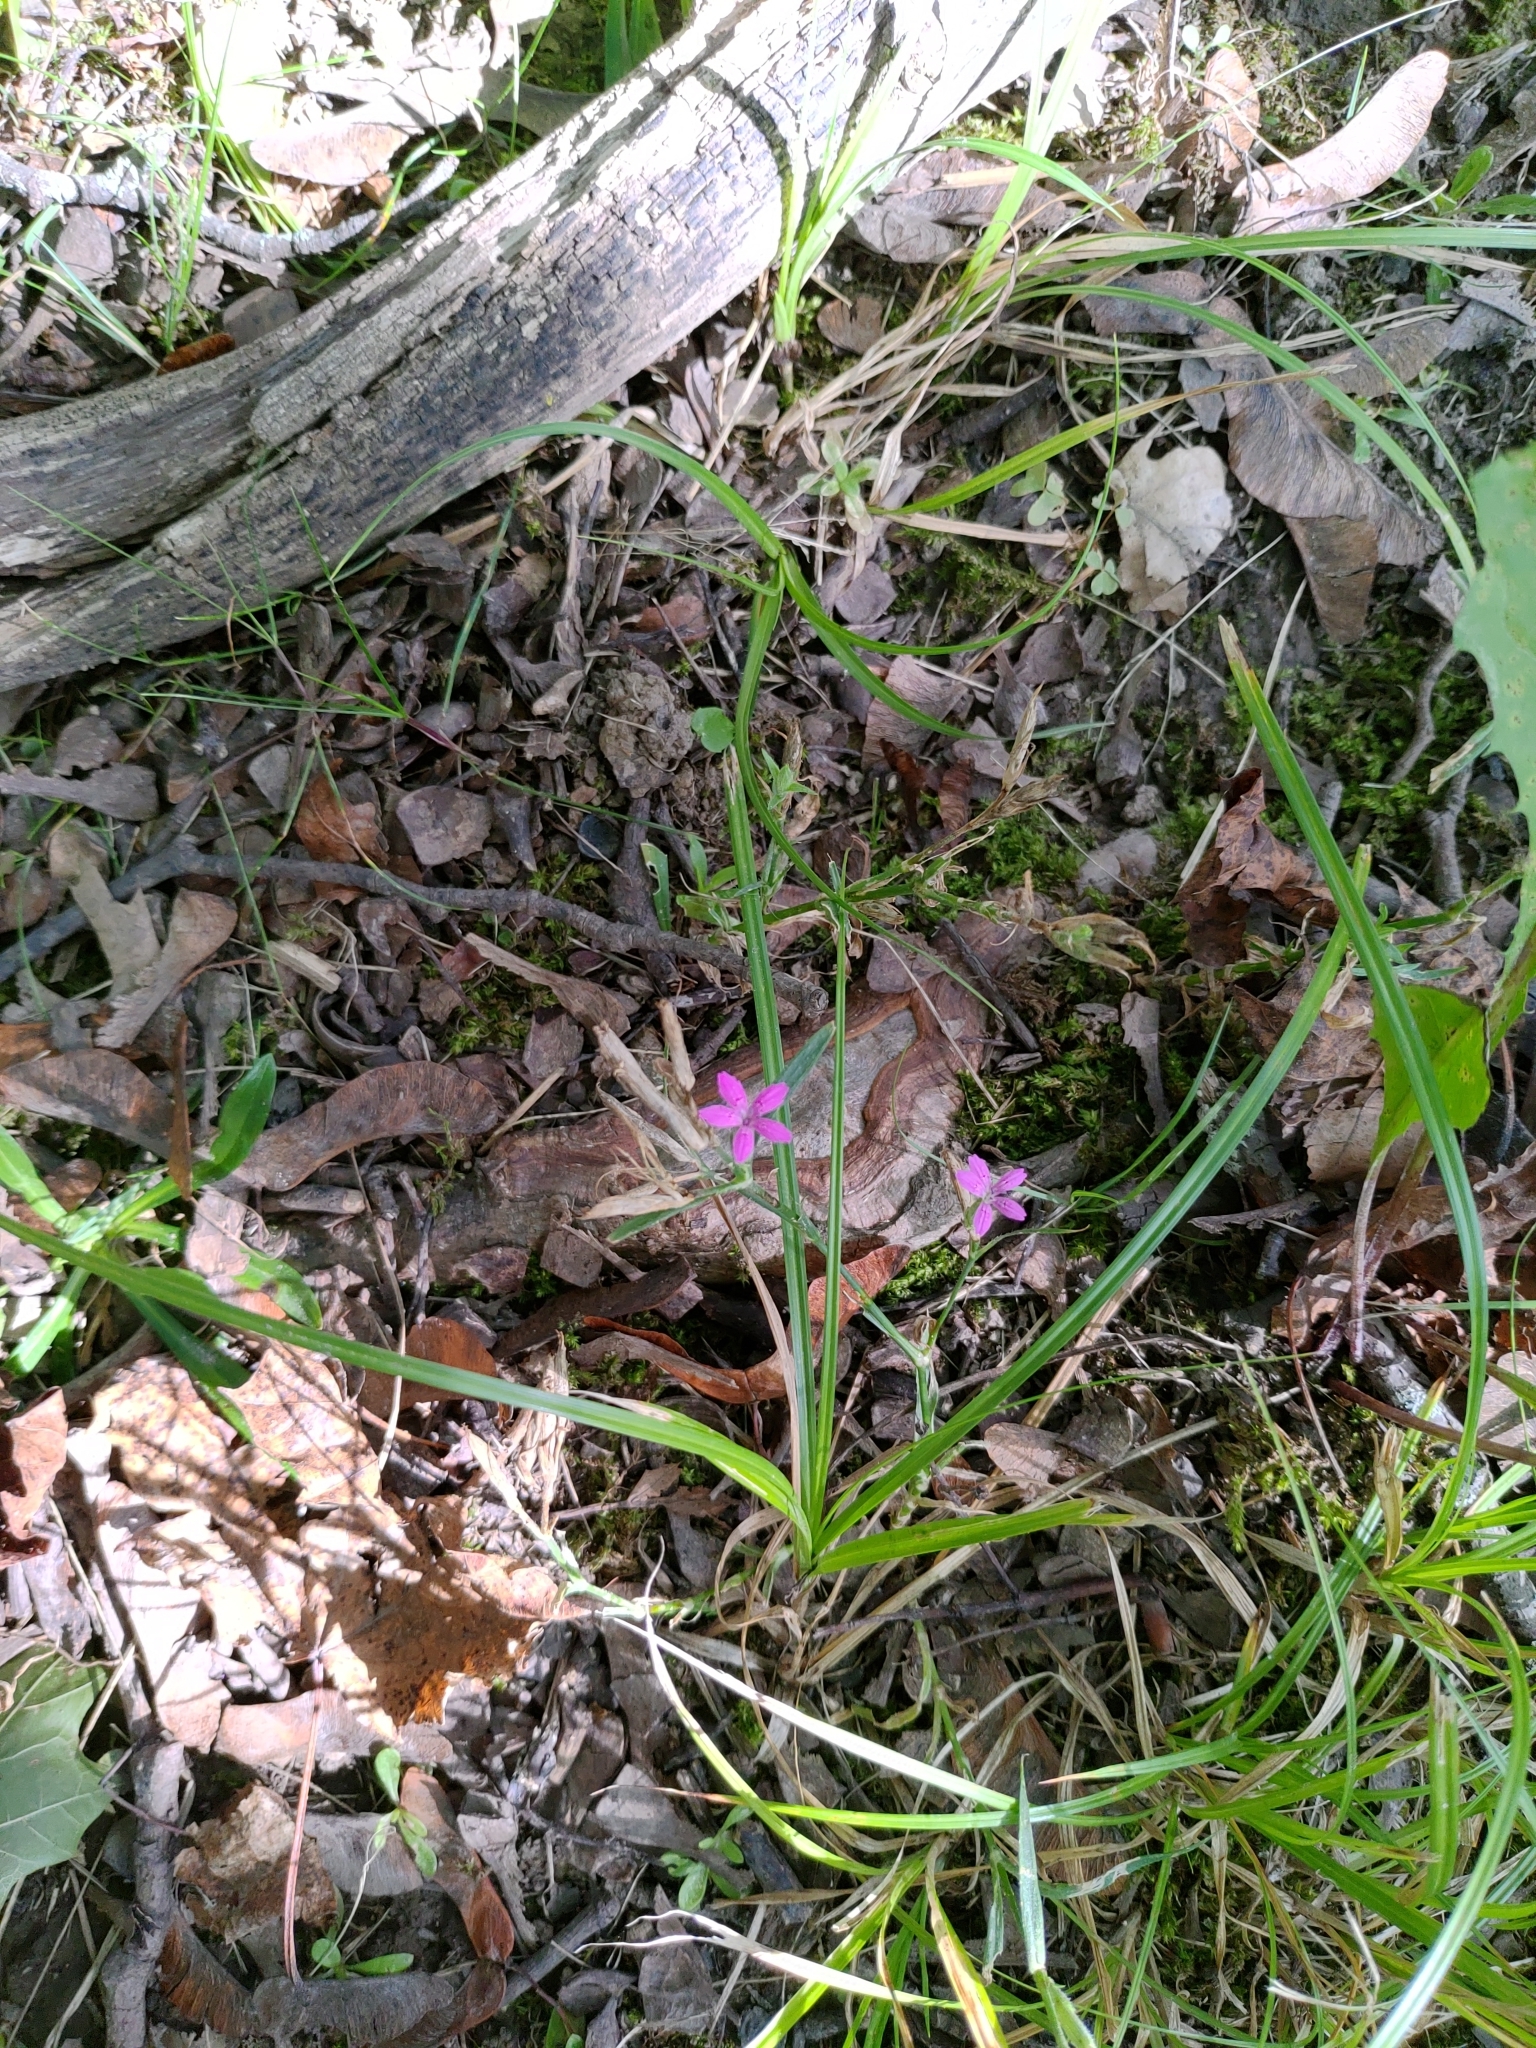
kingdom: Plantae
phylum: Tracheophyta
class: Magnoliopsida
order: Caryophyllales
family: Caryophyllaceae
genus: Dianthus
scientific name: Dianthus armeria
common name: Deptford pink
